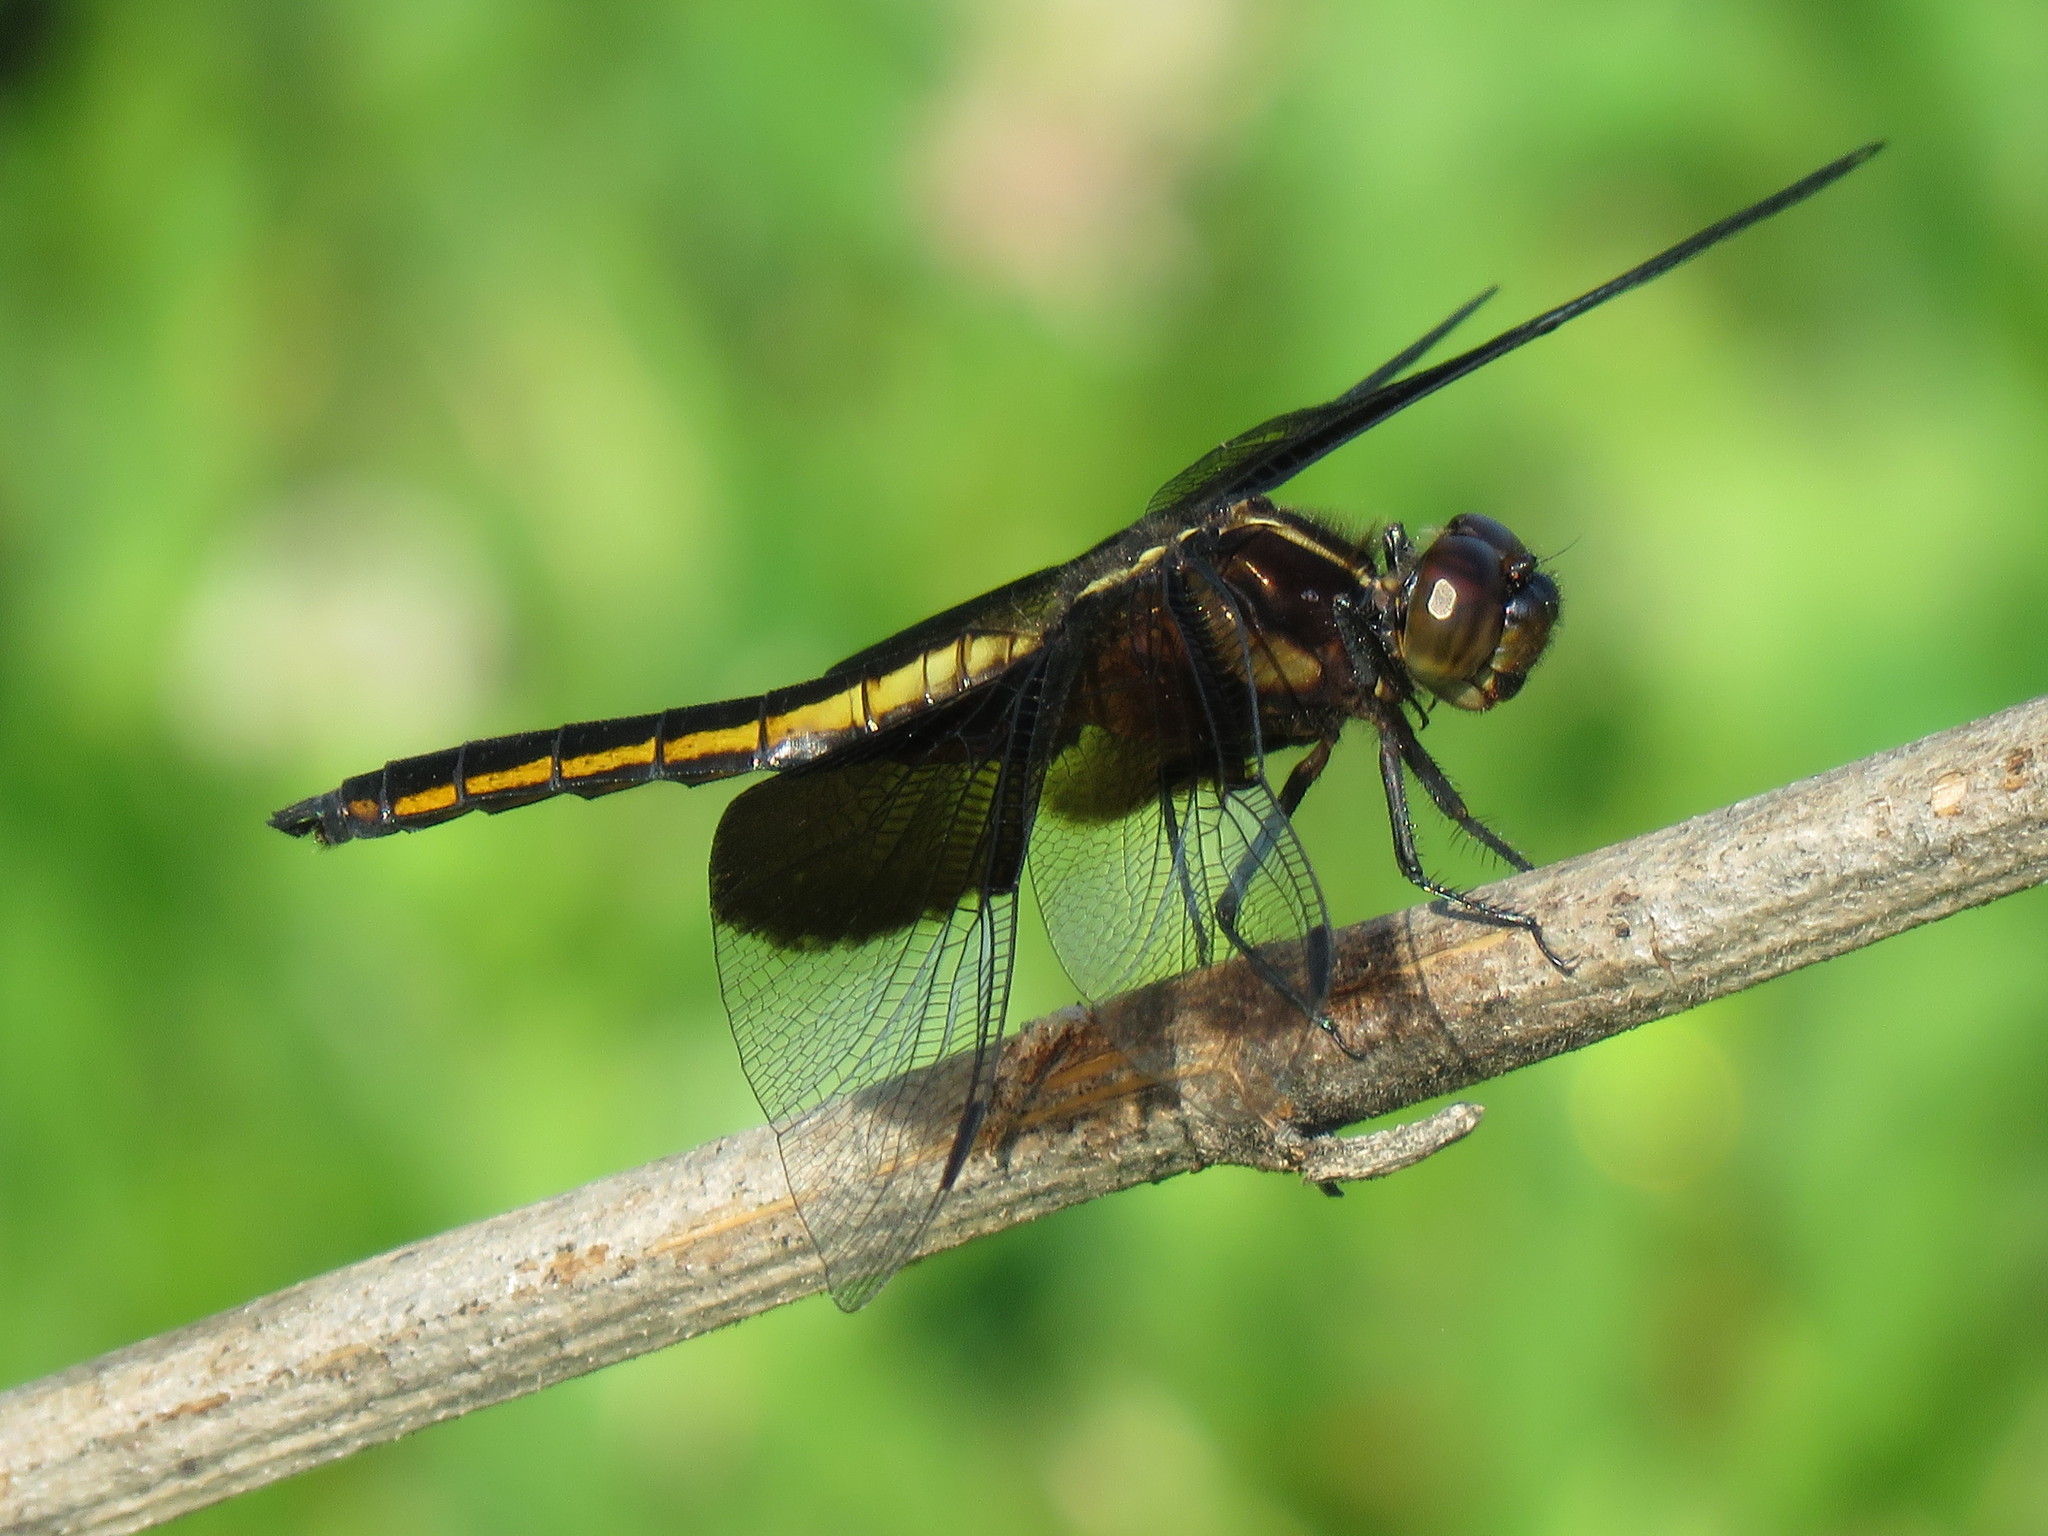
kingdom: Animalia
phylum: Arthropoda
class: Insecta
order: Odonata
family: Libellulidae
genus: Libellula
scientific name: Libellula luctuosa
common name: Widow skimmer
